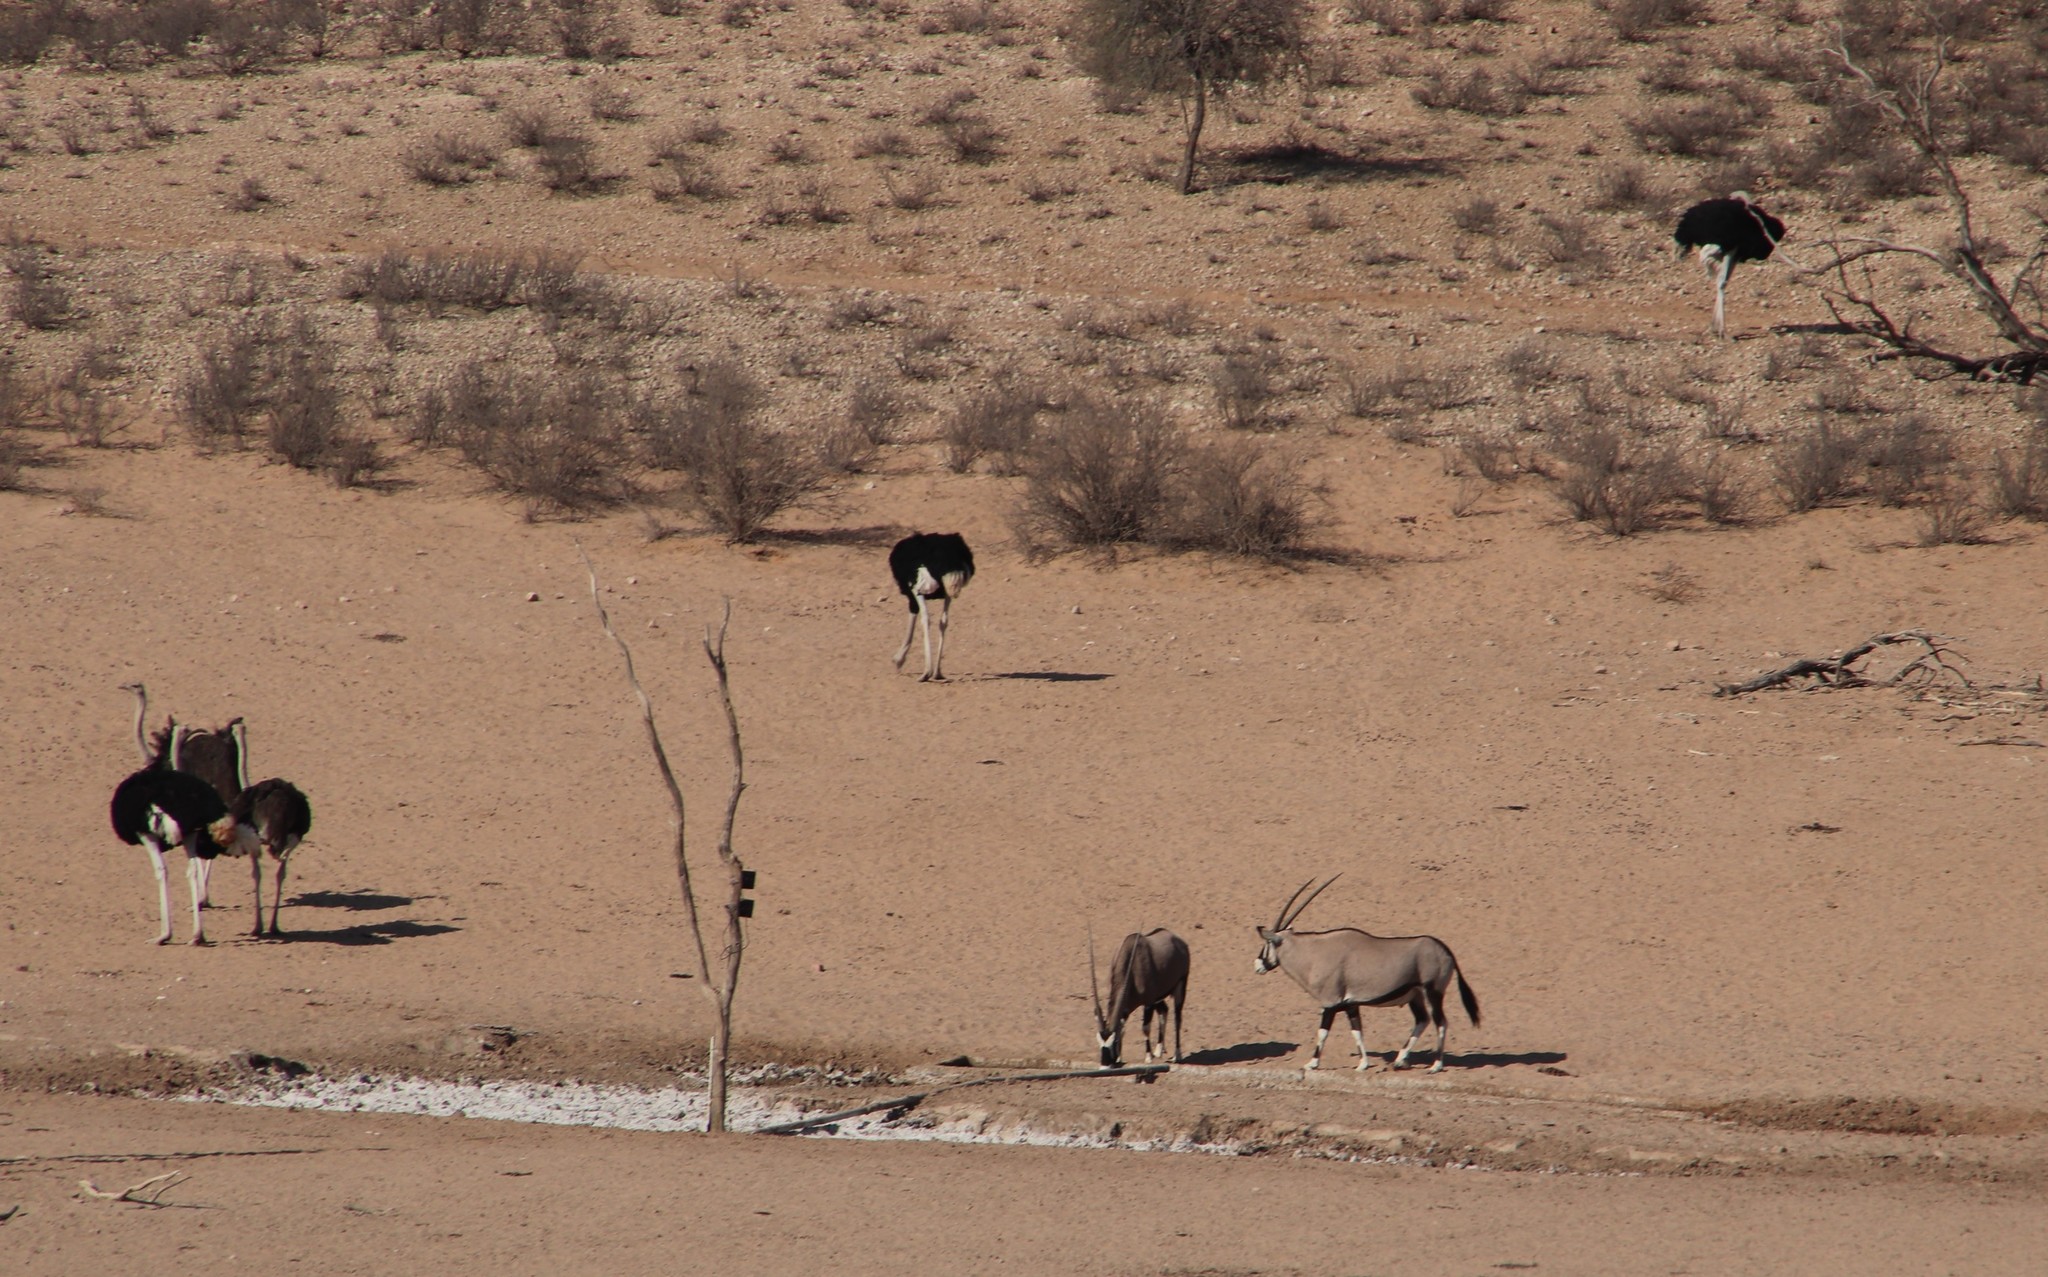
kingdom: Animalia
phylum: Chordata
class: Mammalia
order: Artiodactyla
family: Bovidae
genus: Oryx
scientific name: Oryx gazella
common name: Gemsbok
